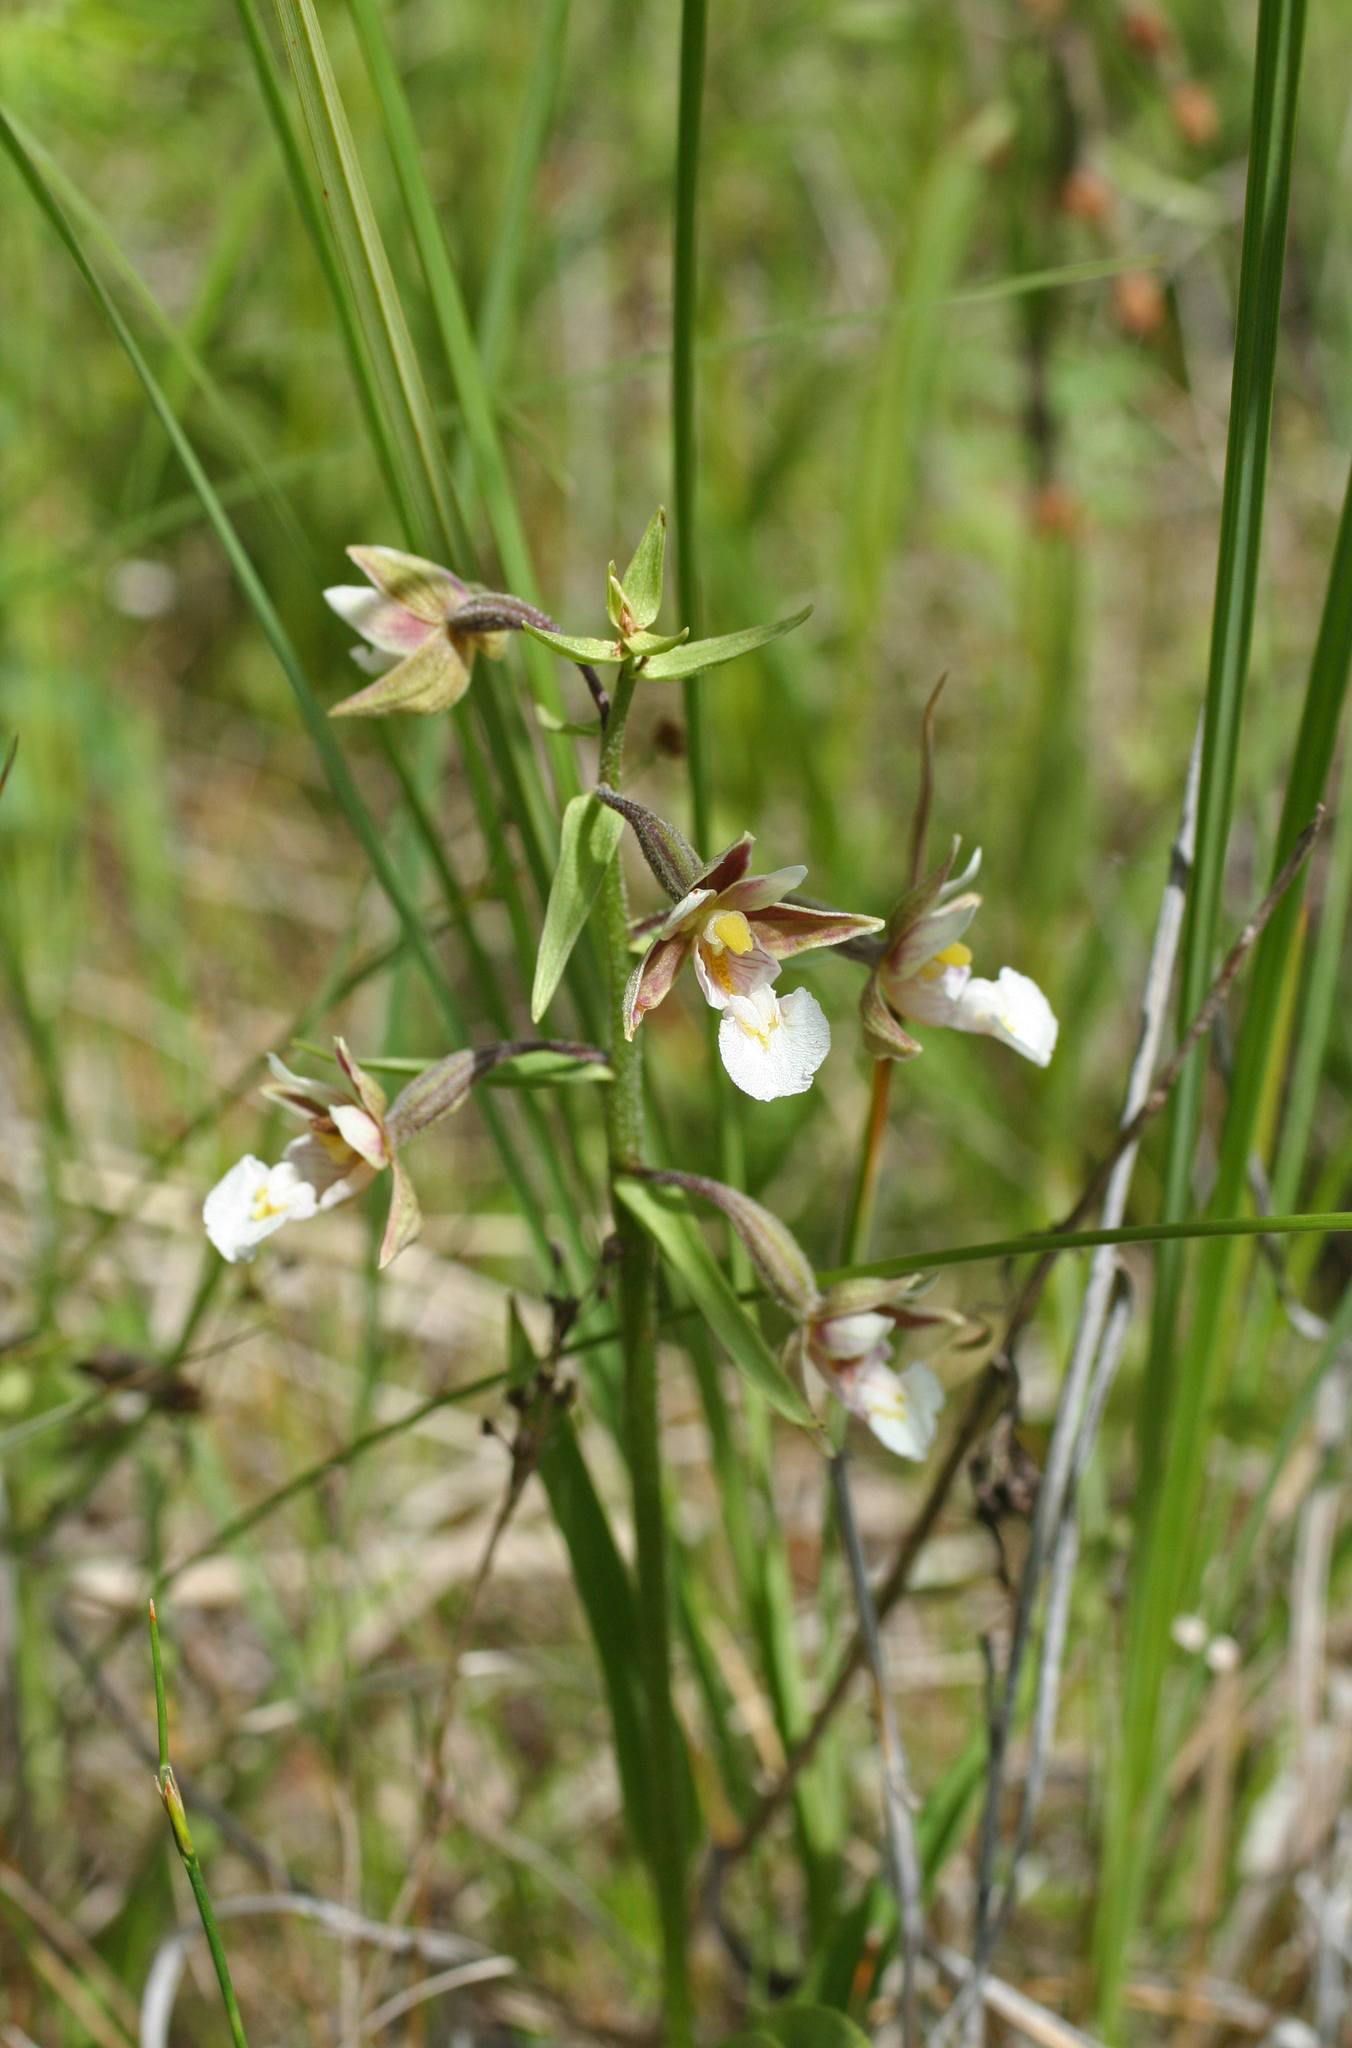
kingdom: Plantae
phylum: Tracheophyta
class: Liliopsida
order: Asparagales
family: Orchidaceae
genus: Epipactis
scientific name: Epipactis palustris
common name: Marsh helleborine
